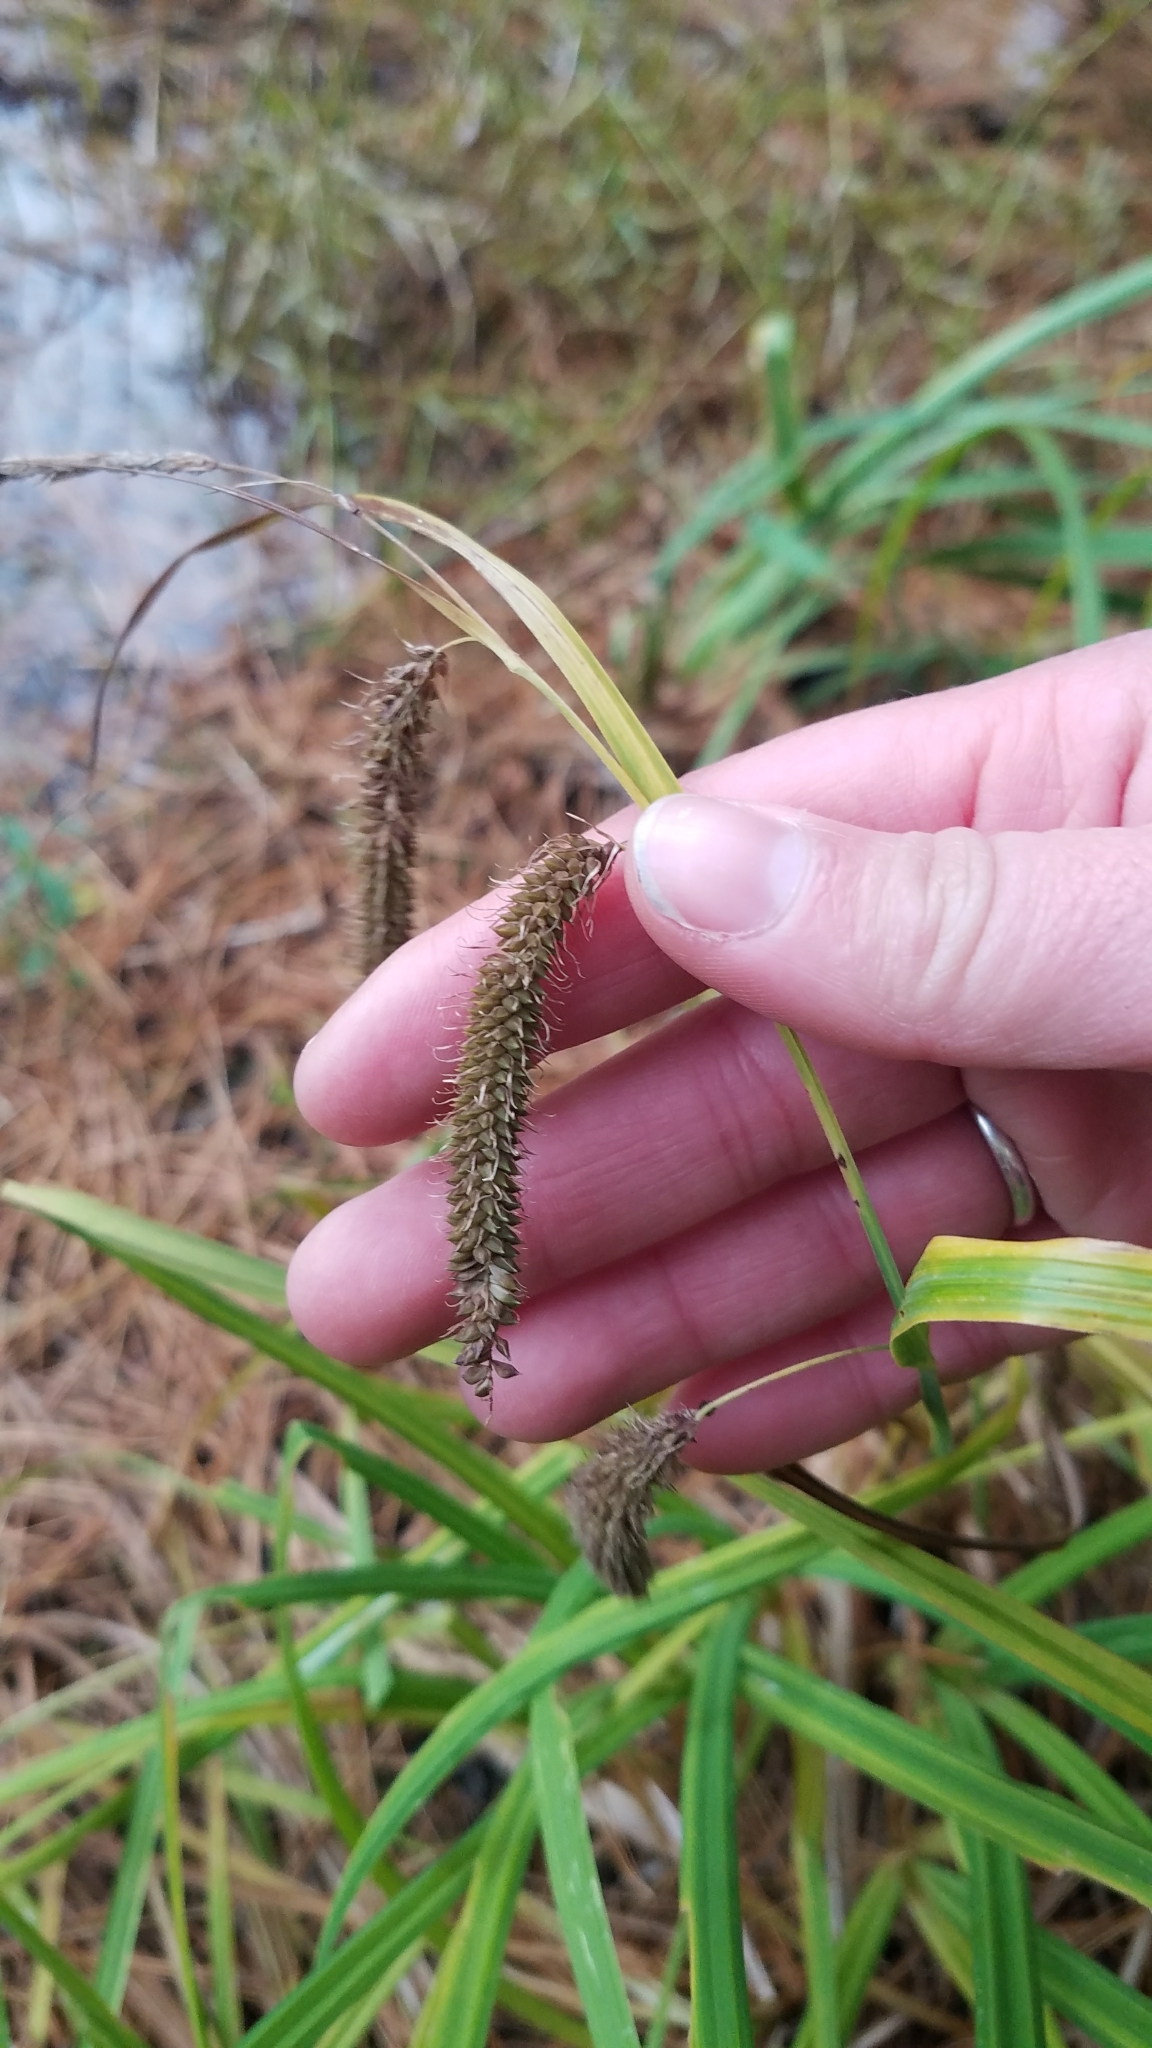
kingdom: Plantae
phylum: Tracheophyta
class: Liliopsida
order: Poales
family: Cyperaceae
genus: Carex
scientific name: Carex crinita
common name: Fringed sedge
